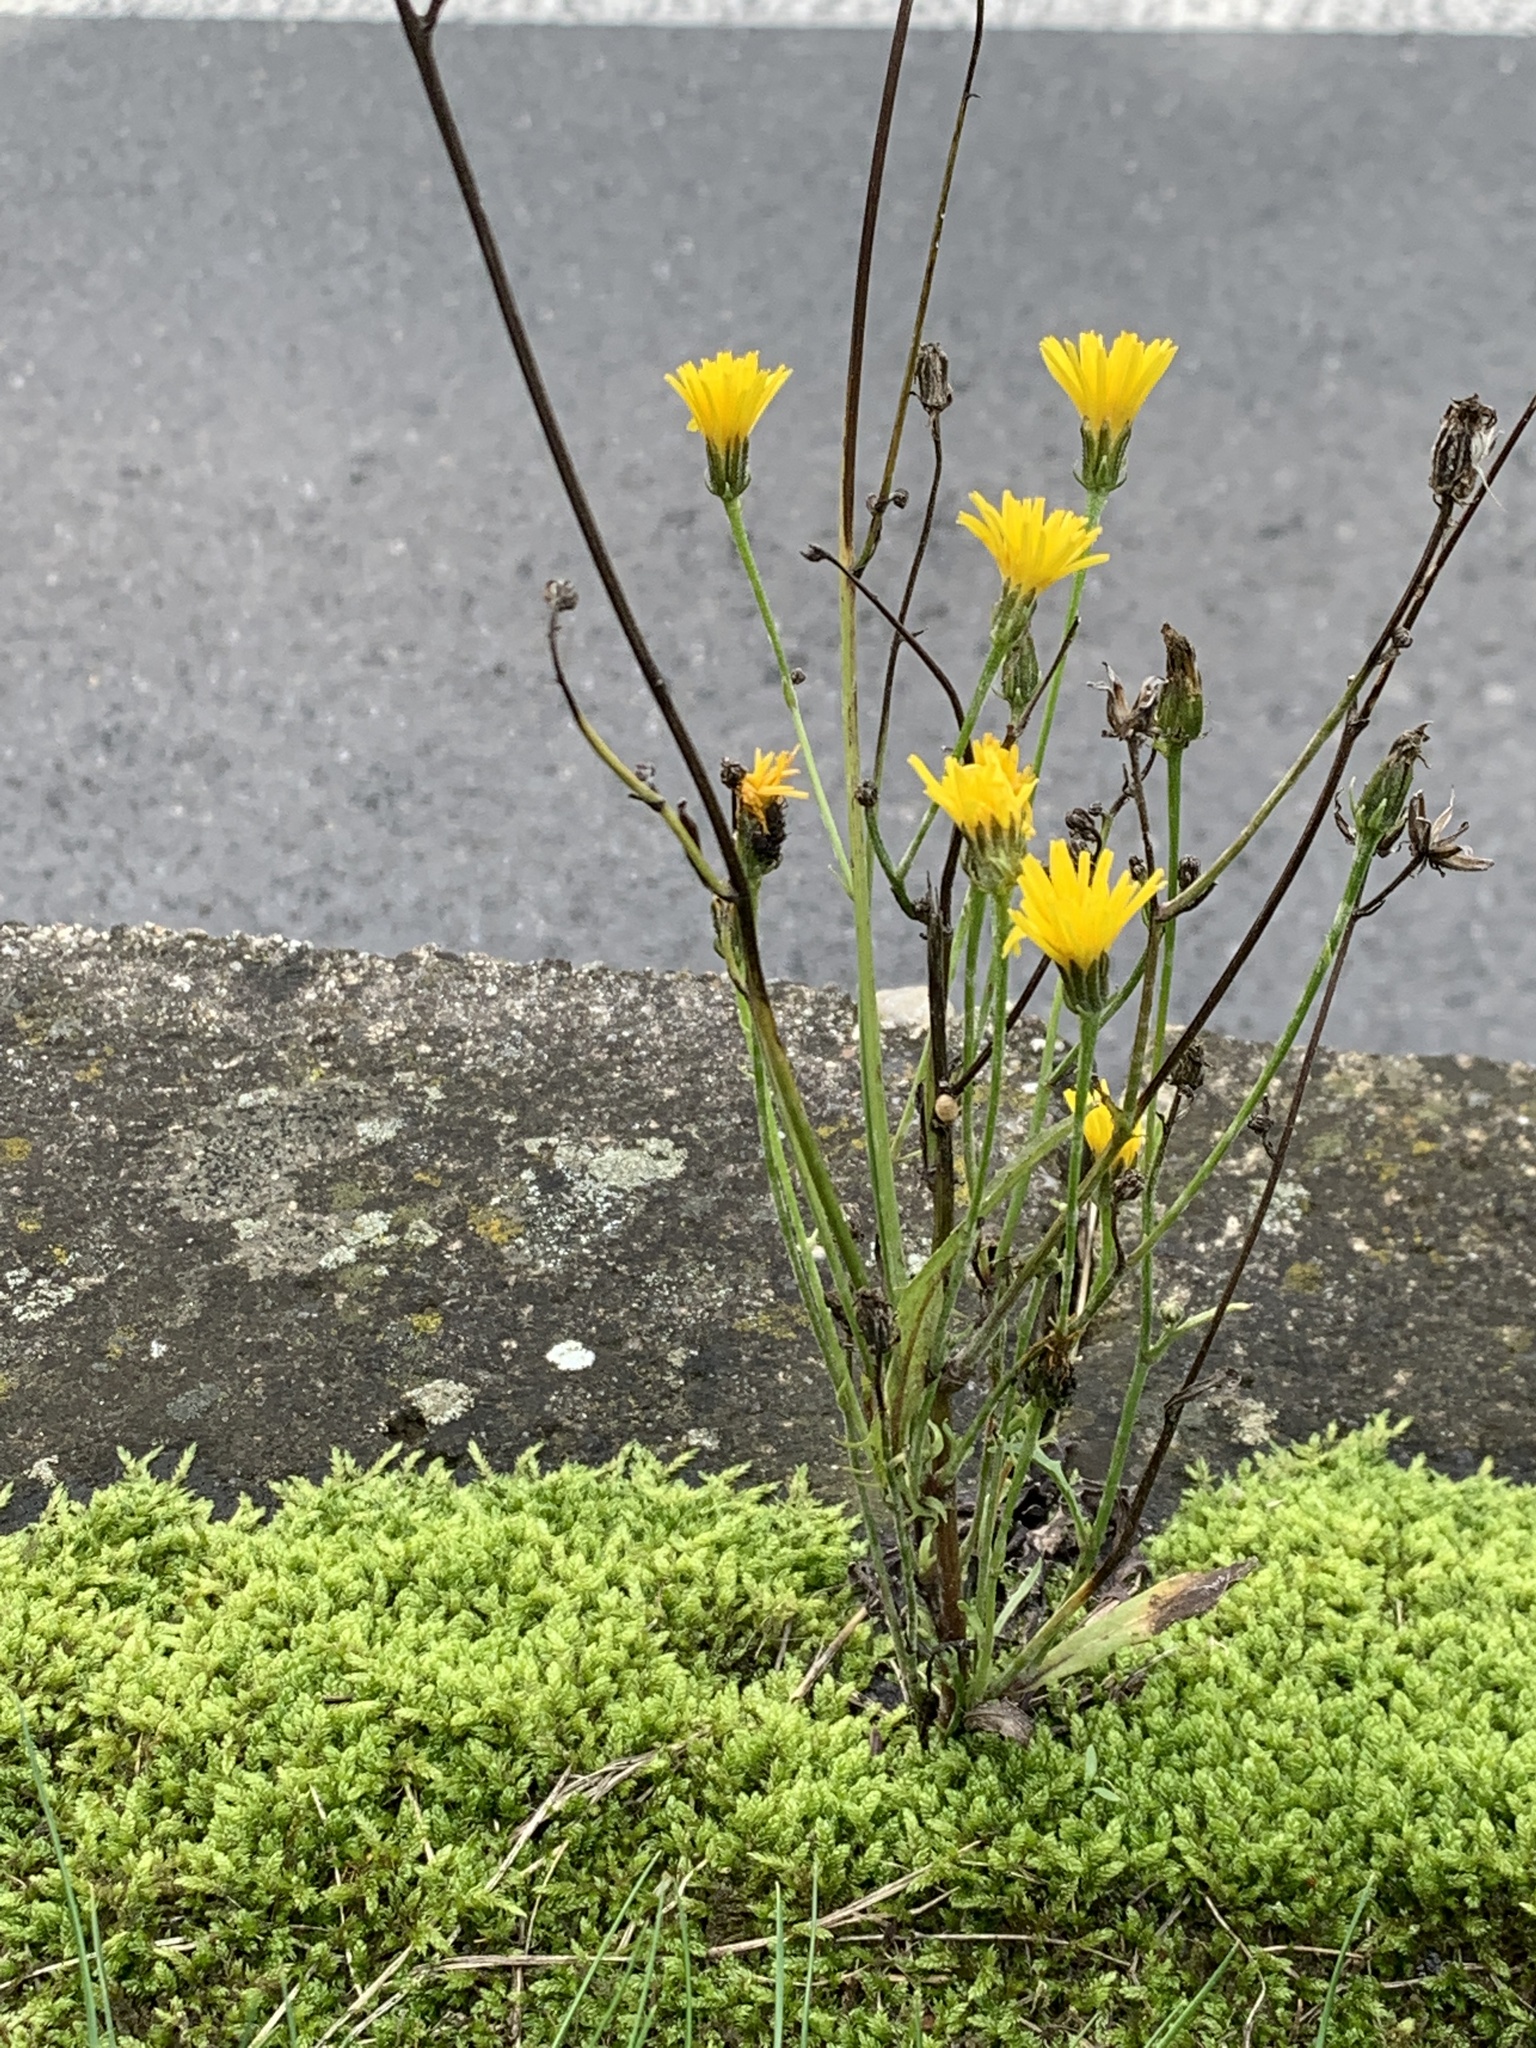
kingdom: Plantae
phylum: Tracheophyta
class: Magnoliopsida
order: Asterales
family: Asteraceae
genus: Crepis
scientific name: Crepis biennis
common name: Rough hawk's-beard
